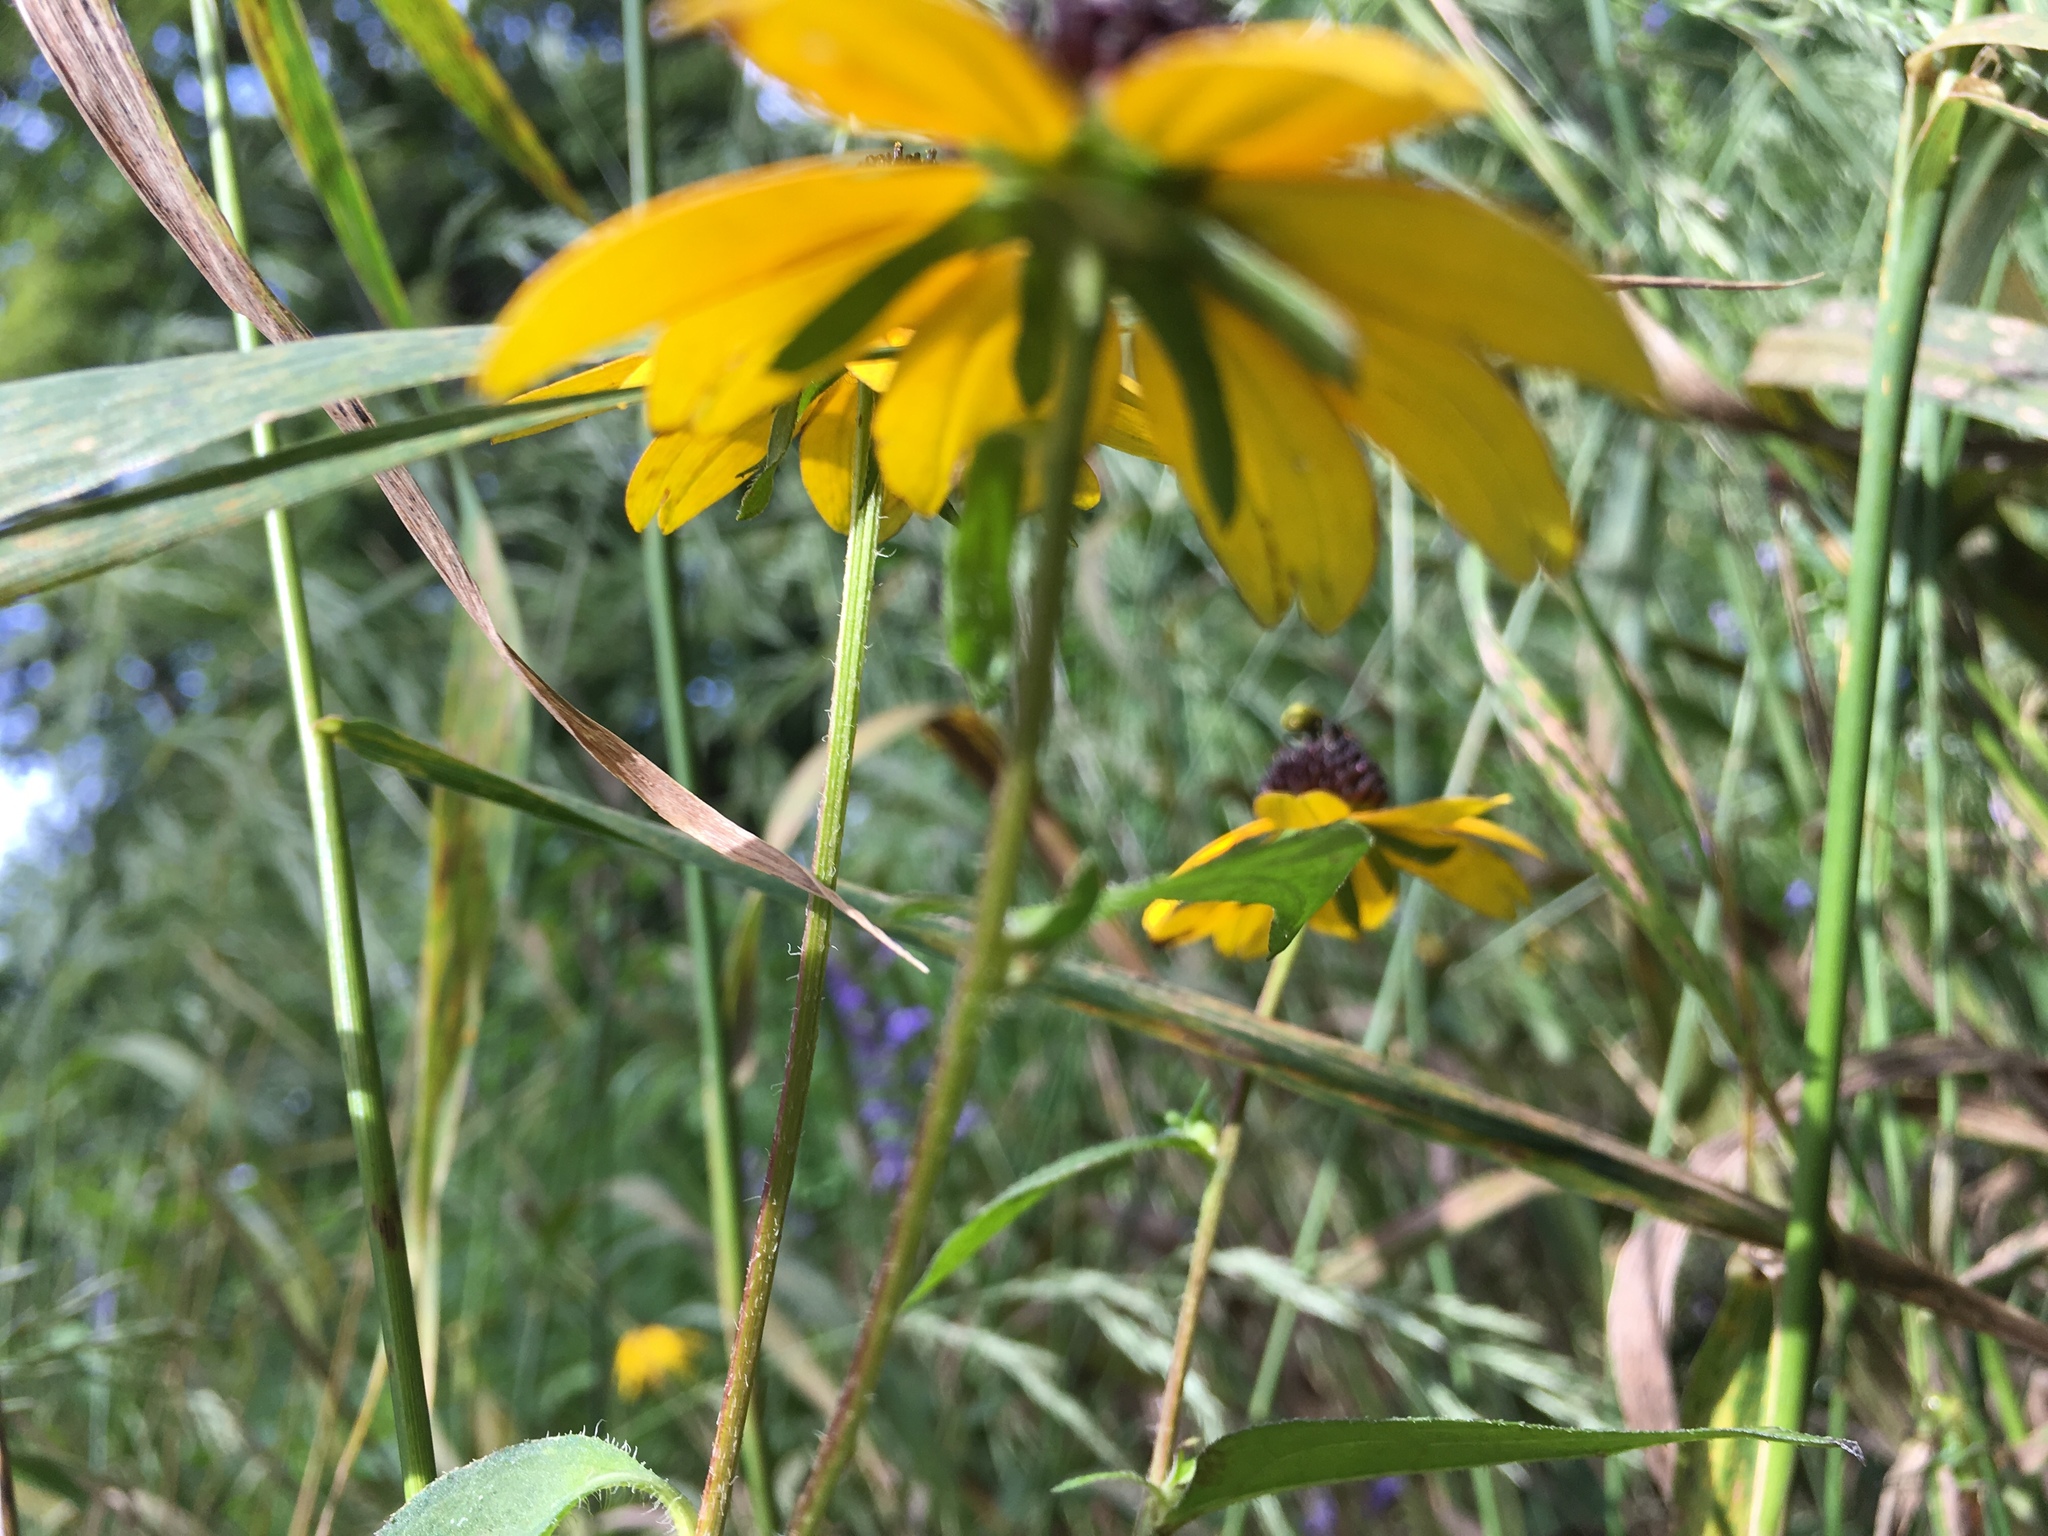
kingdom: Plantae
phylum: Tracheophyta
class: Magnoliopsida
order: Asterales
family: Asteraceae
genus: Rudbeckia
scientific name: Rudbeckia triloba
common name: Thin-leaved coneflower
